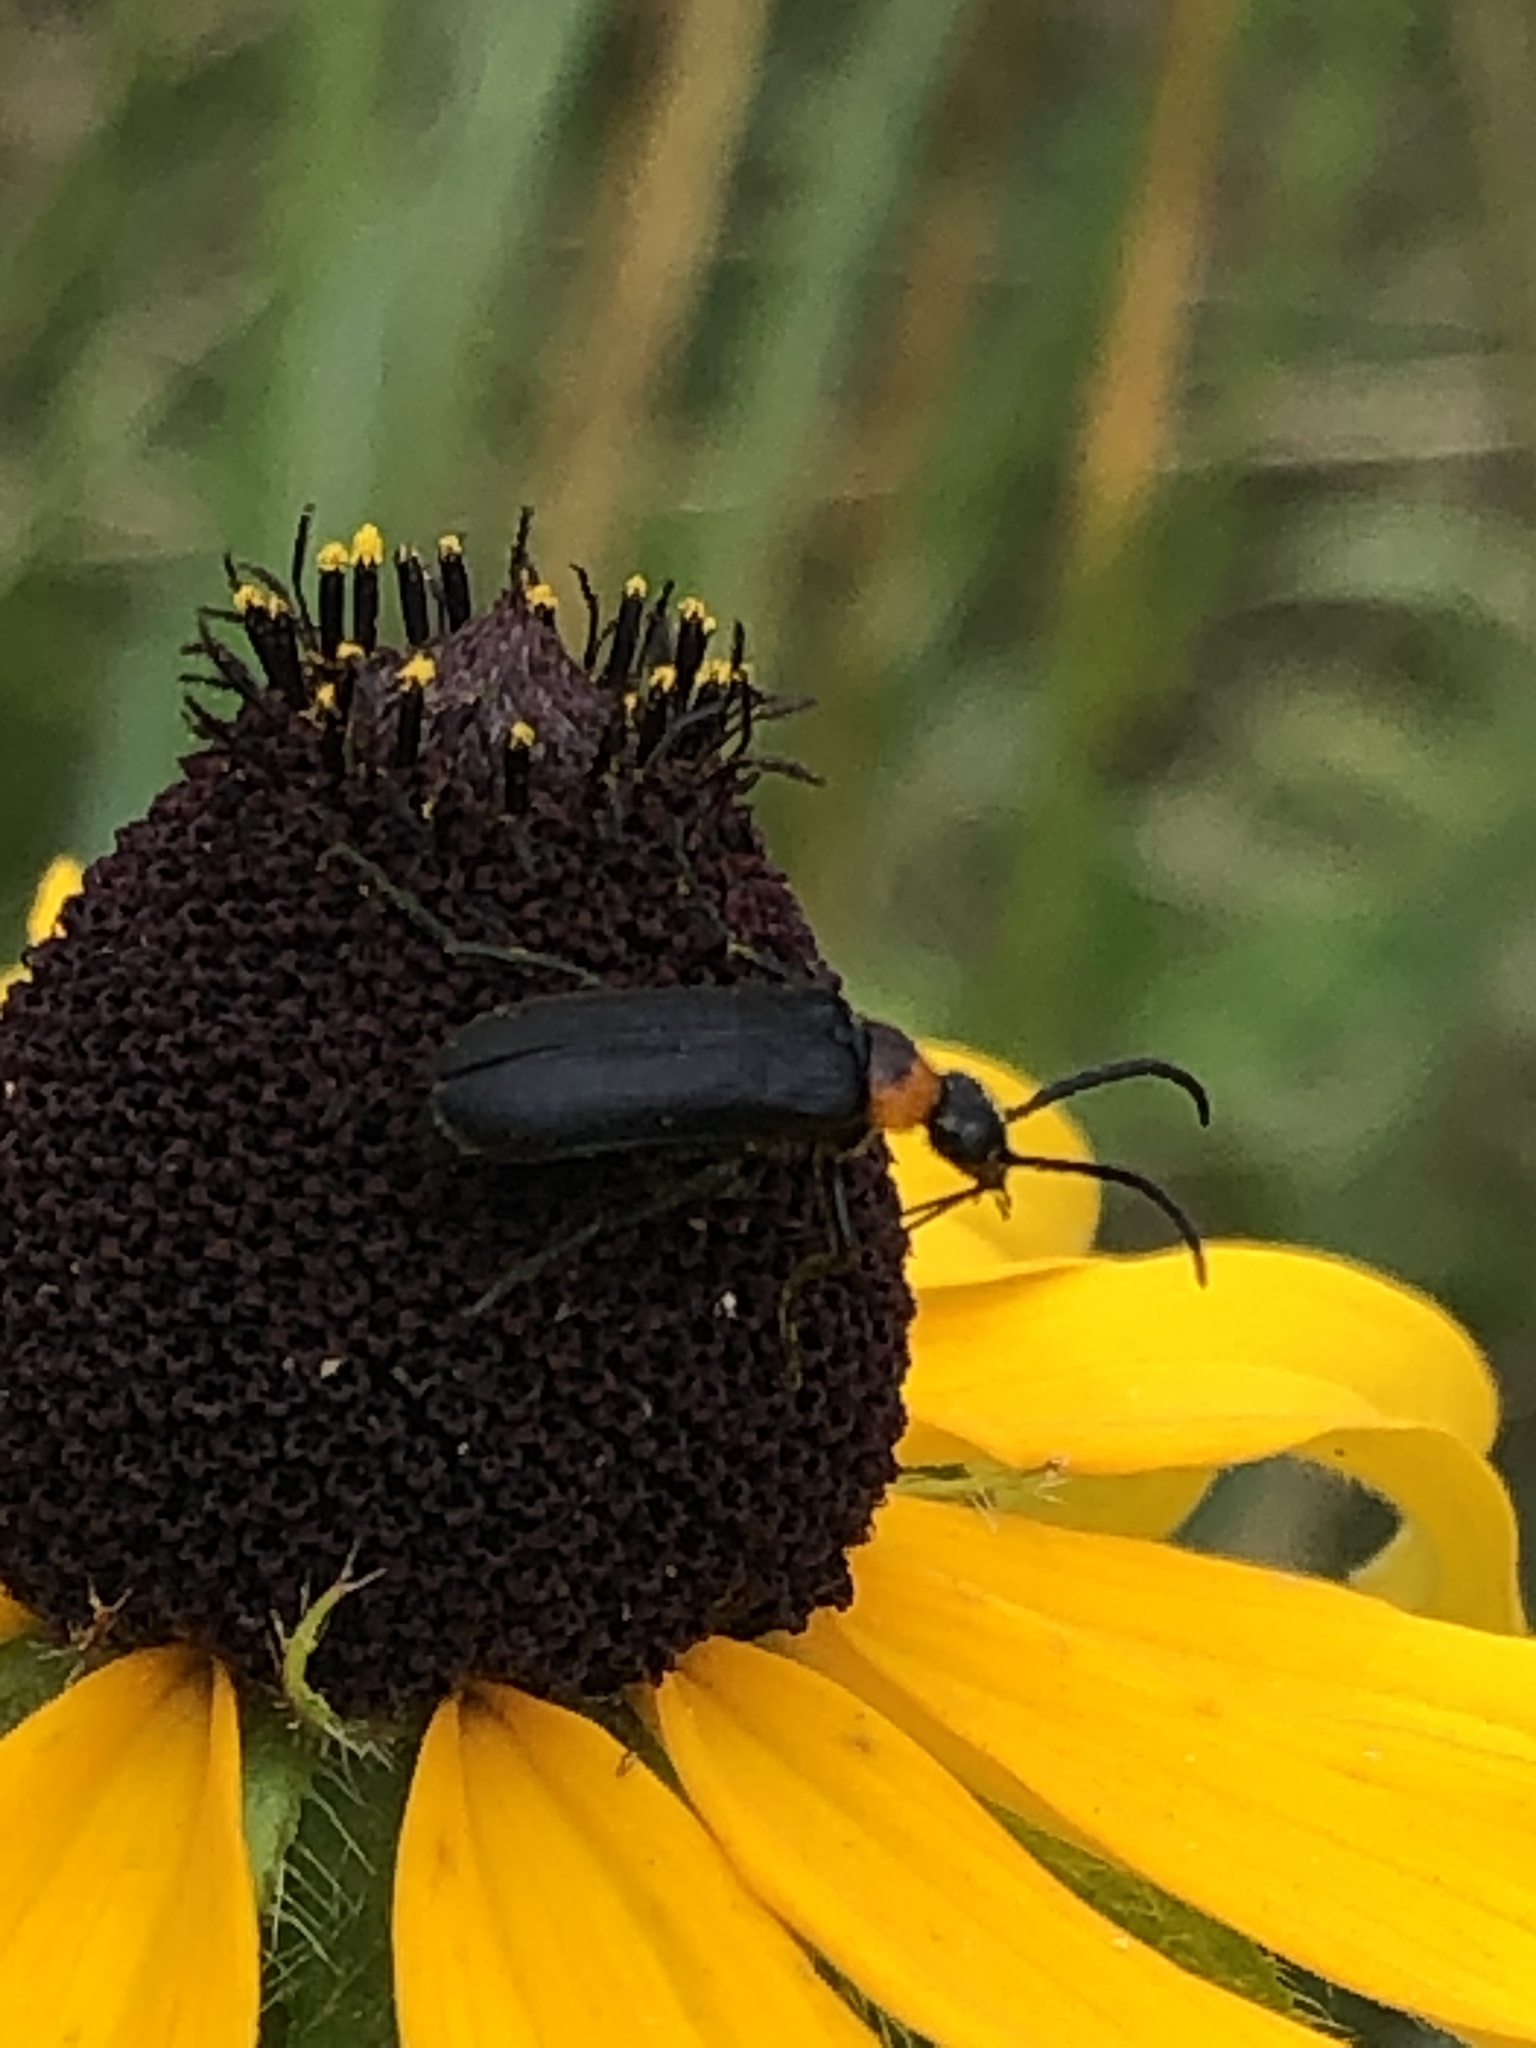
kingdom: Animalia
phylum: Arthropoda
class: Insecta
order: Coleoptera
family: Meloidae
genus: Nemognatha
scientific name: Nemognatha nemorensis
